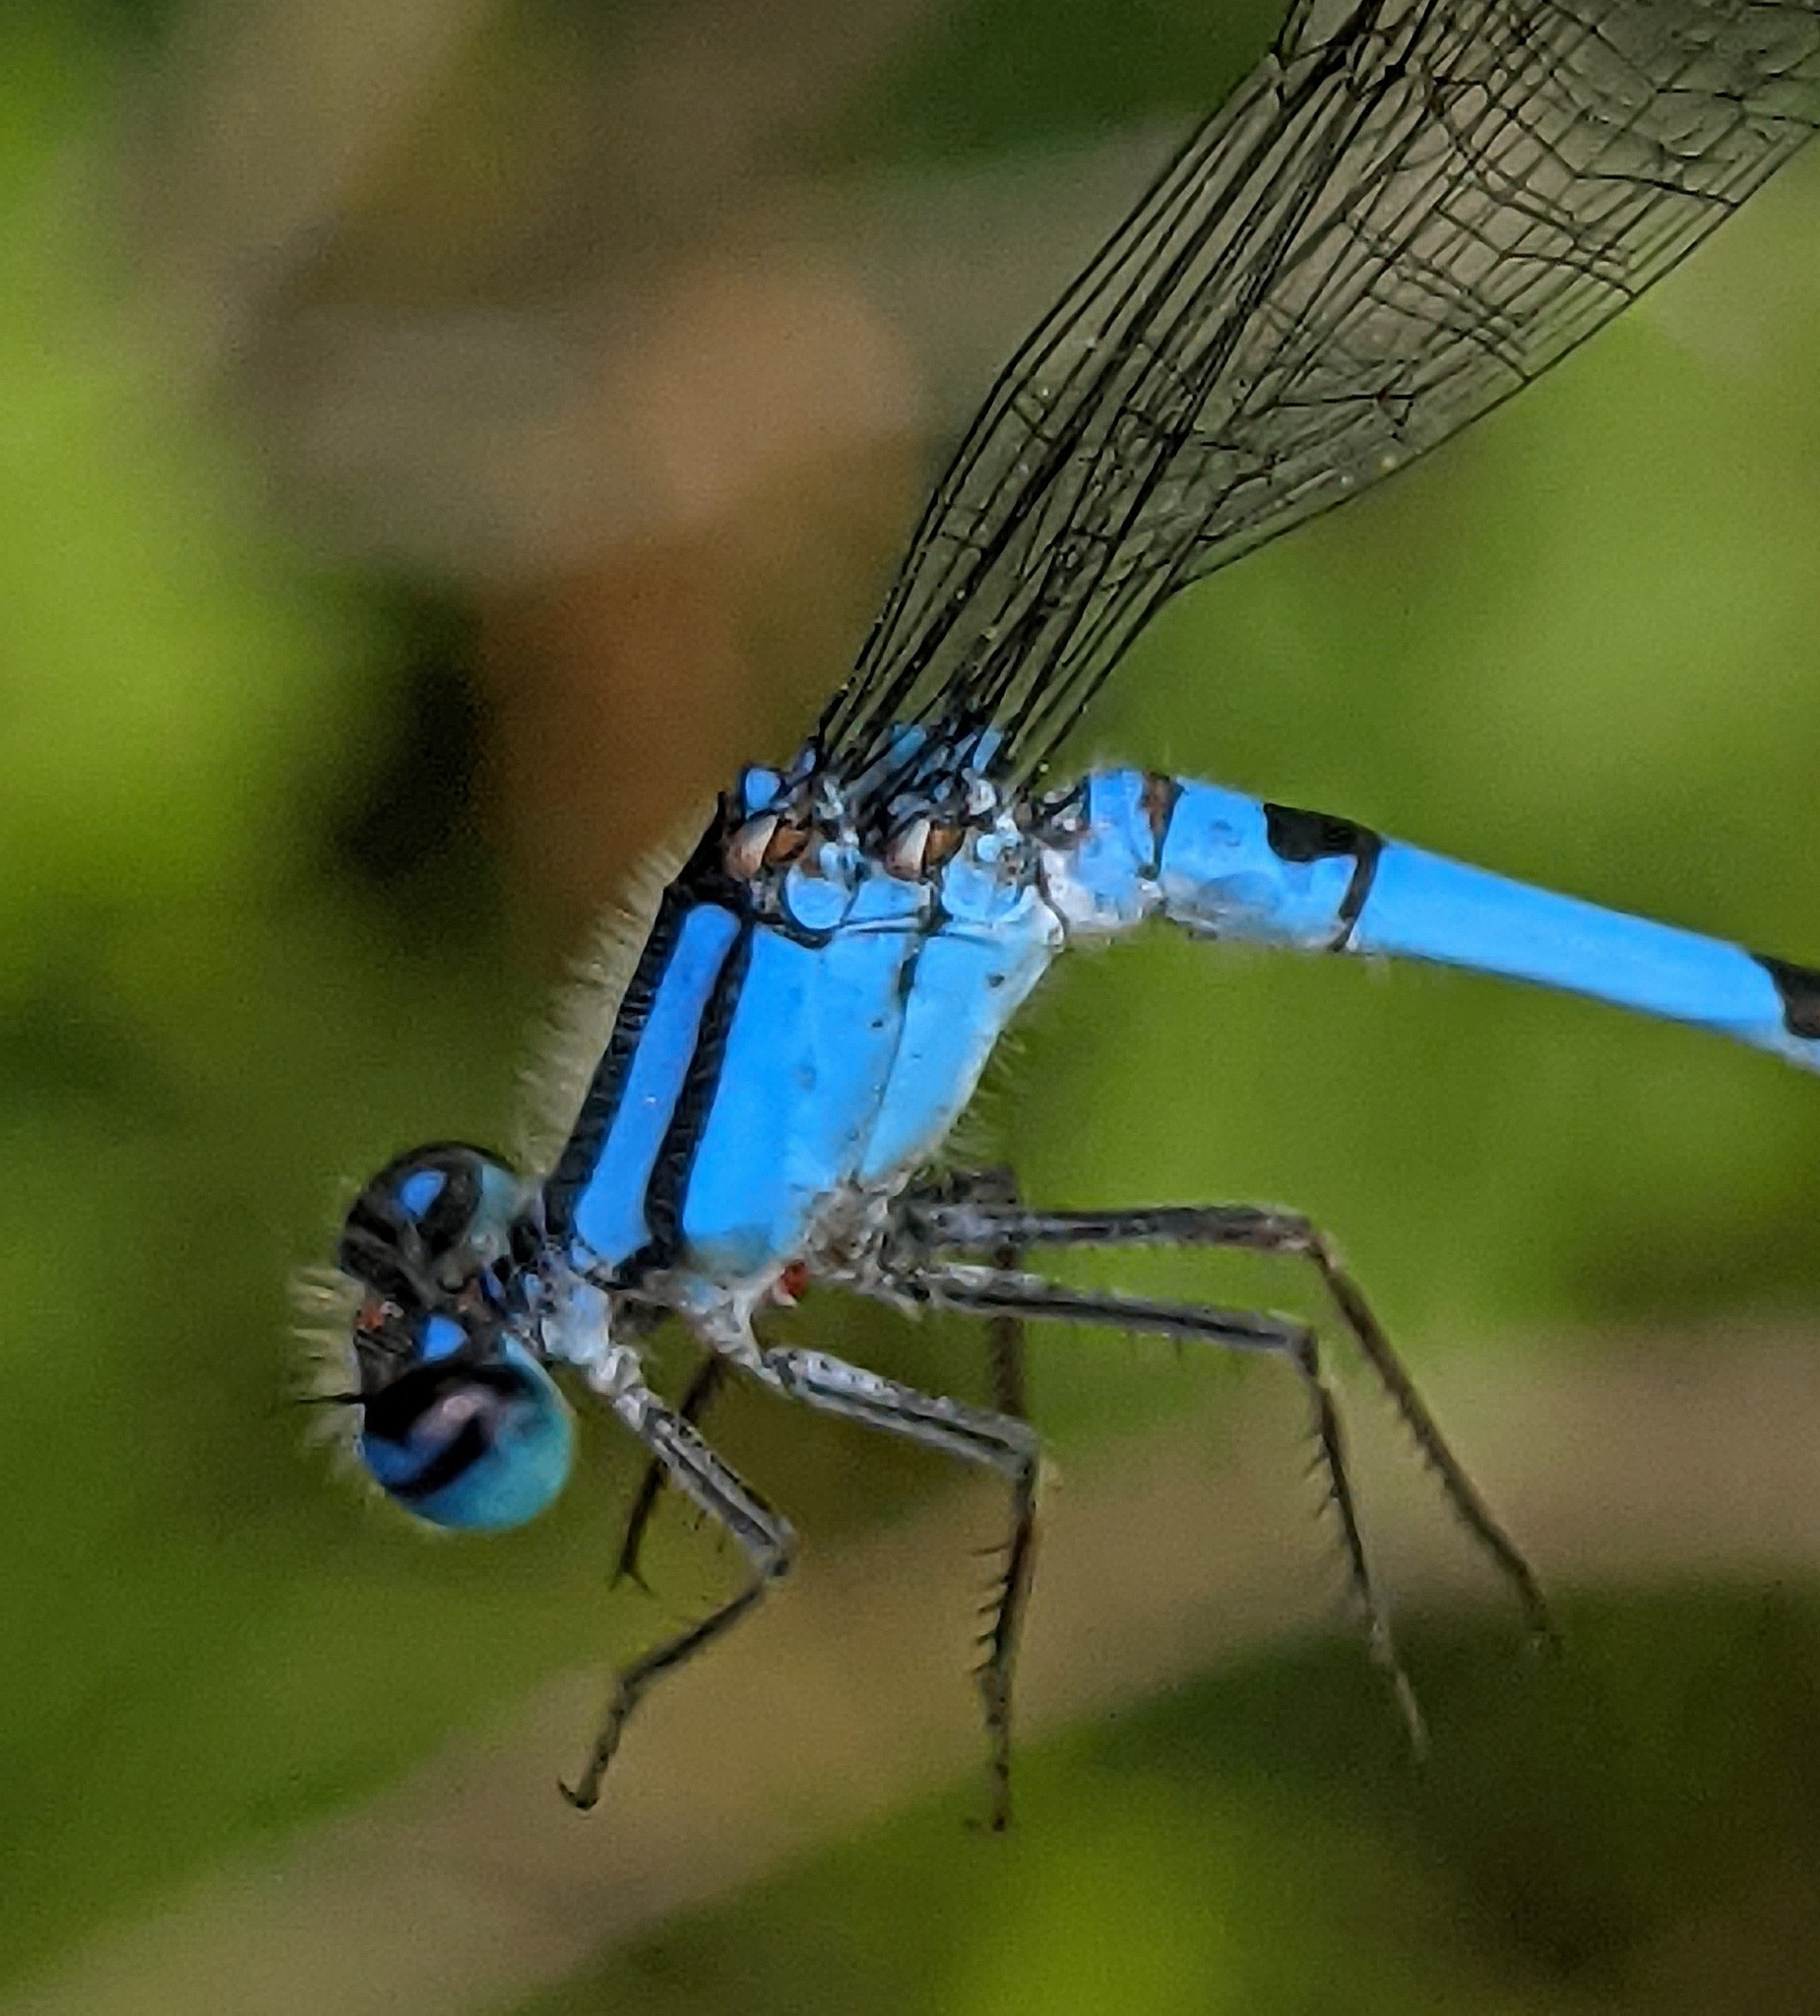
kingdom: Animalia
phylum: Arthropoda
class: Insecta
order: Odonata
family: Coenagrionidae
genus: Enallagma
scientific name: Enallagma civile
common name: Damselfly
